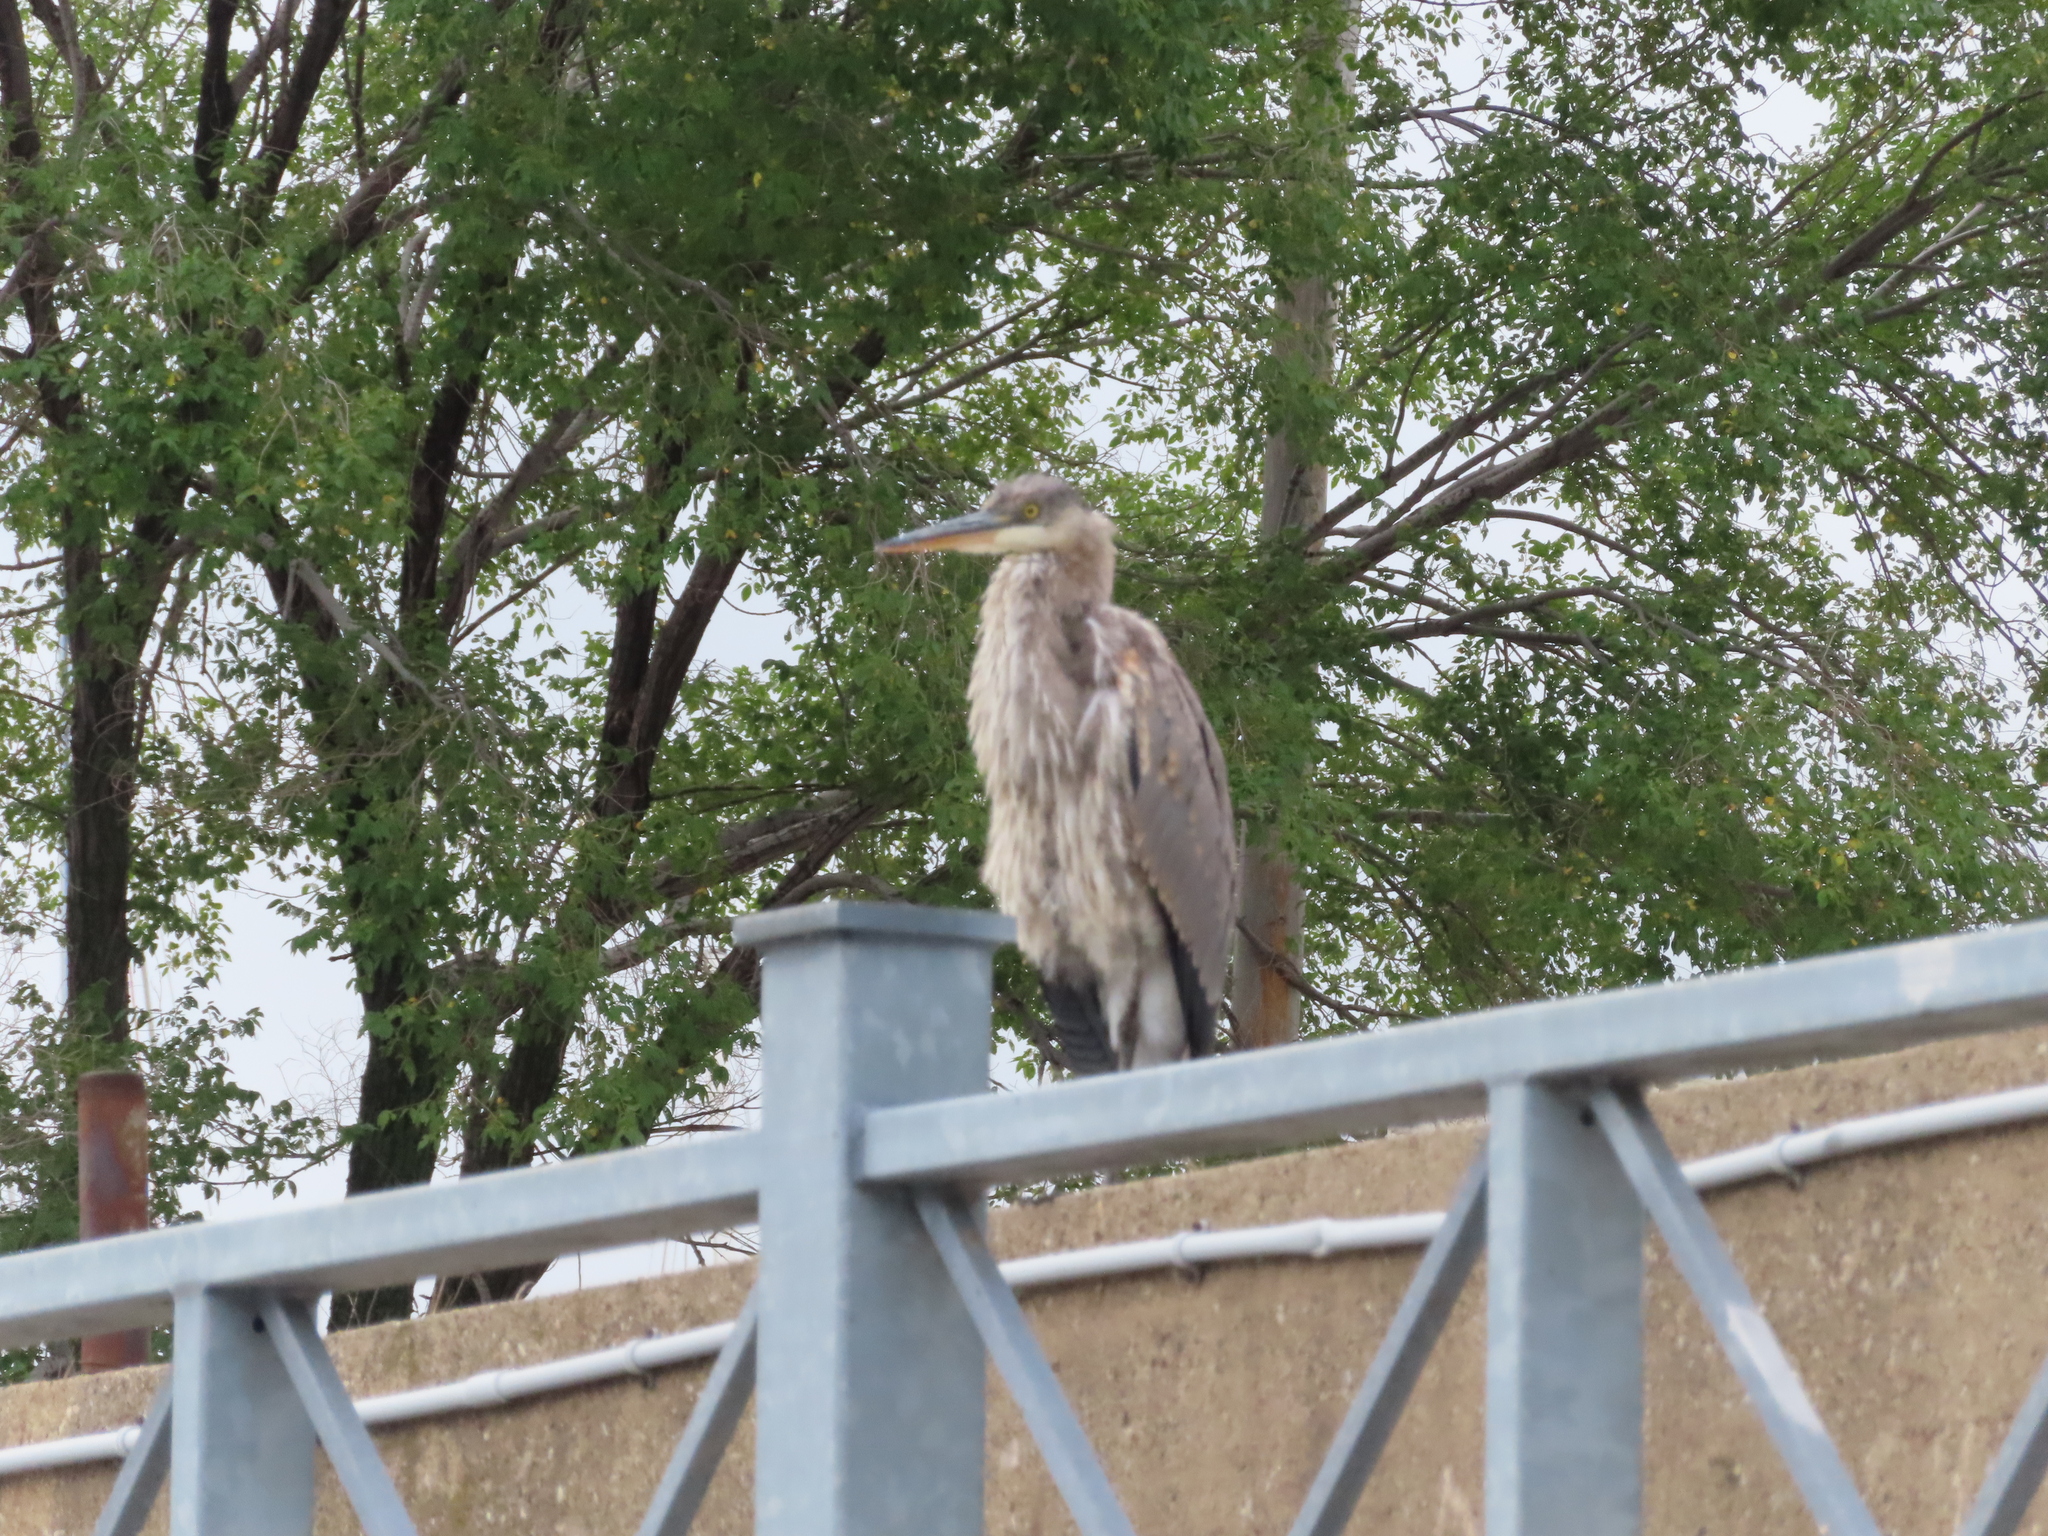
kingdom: Animalia
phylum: Chordata
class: Aves
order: Pelecaniformes
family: Ardeidae
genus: Ardea
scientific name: Ardea herodias
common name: Great blue heron
